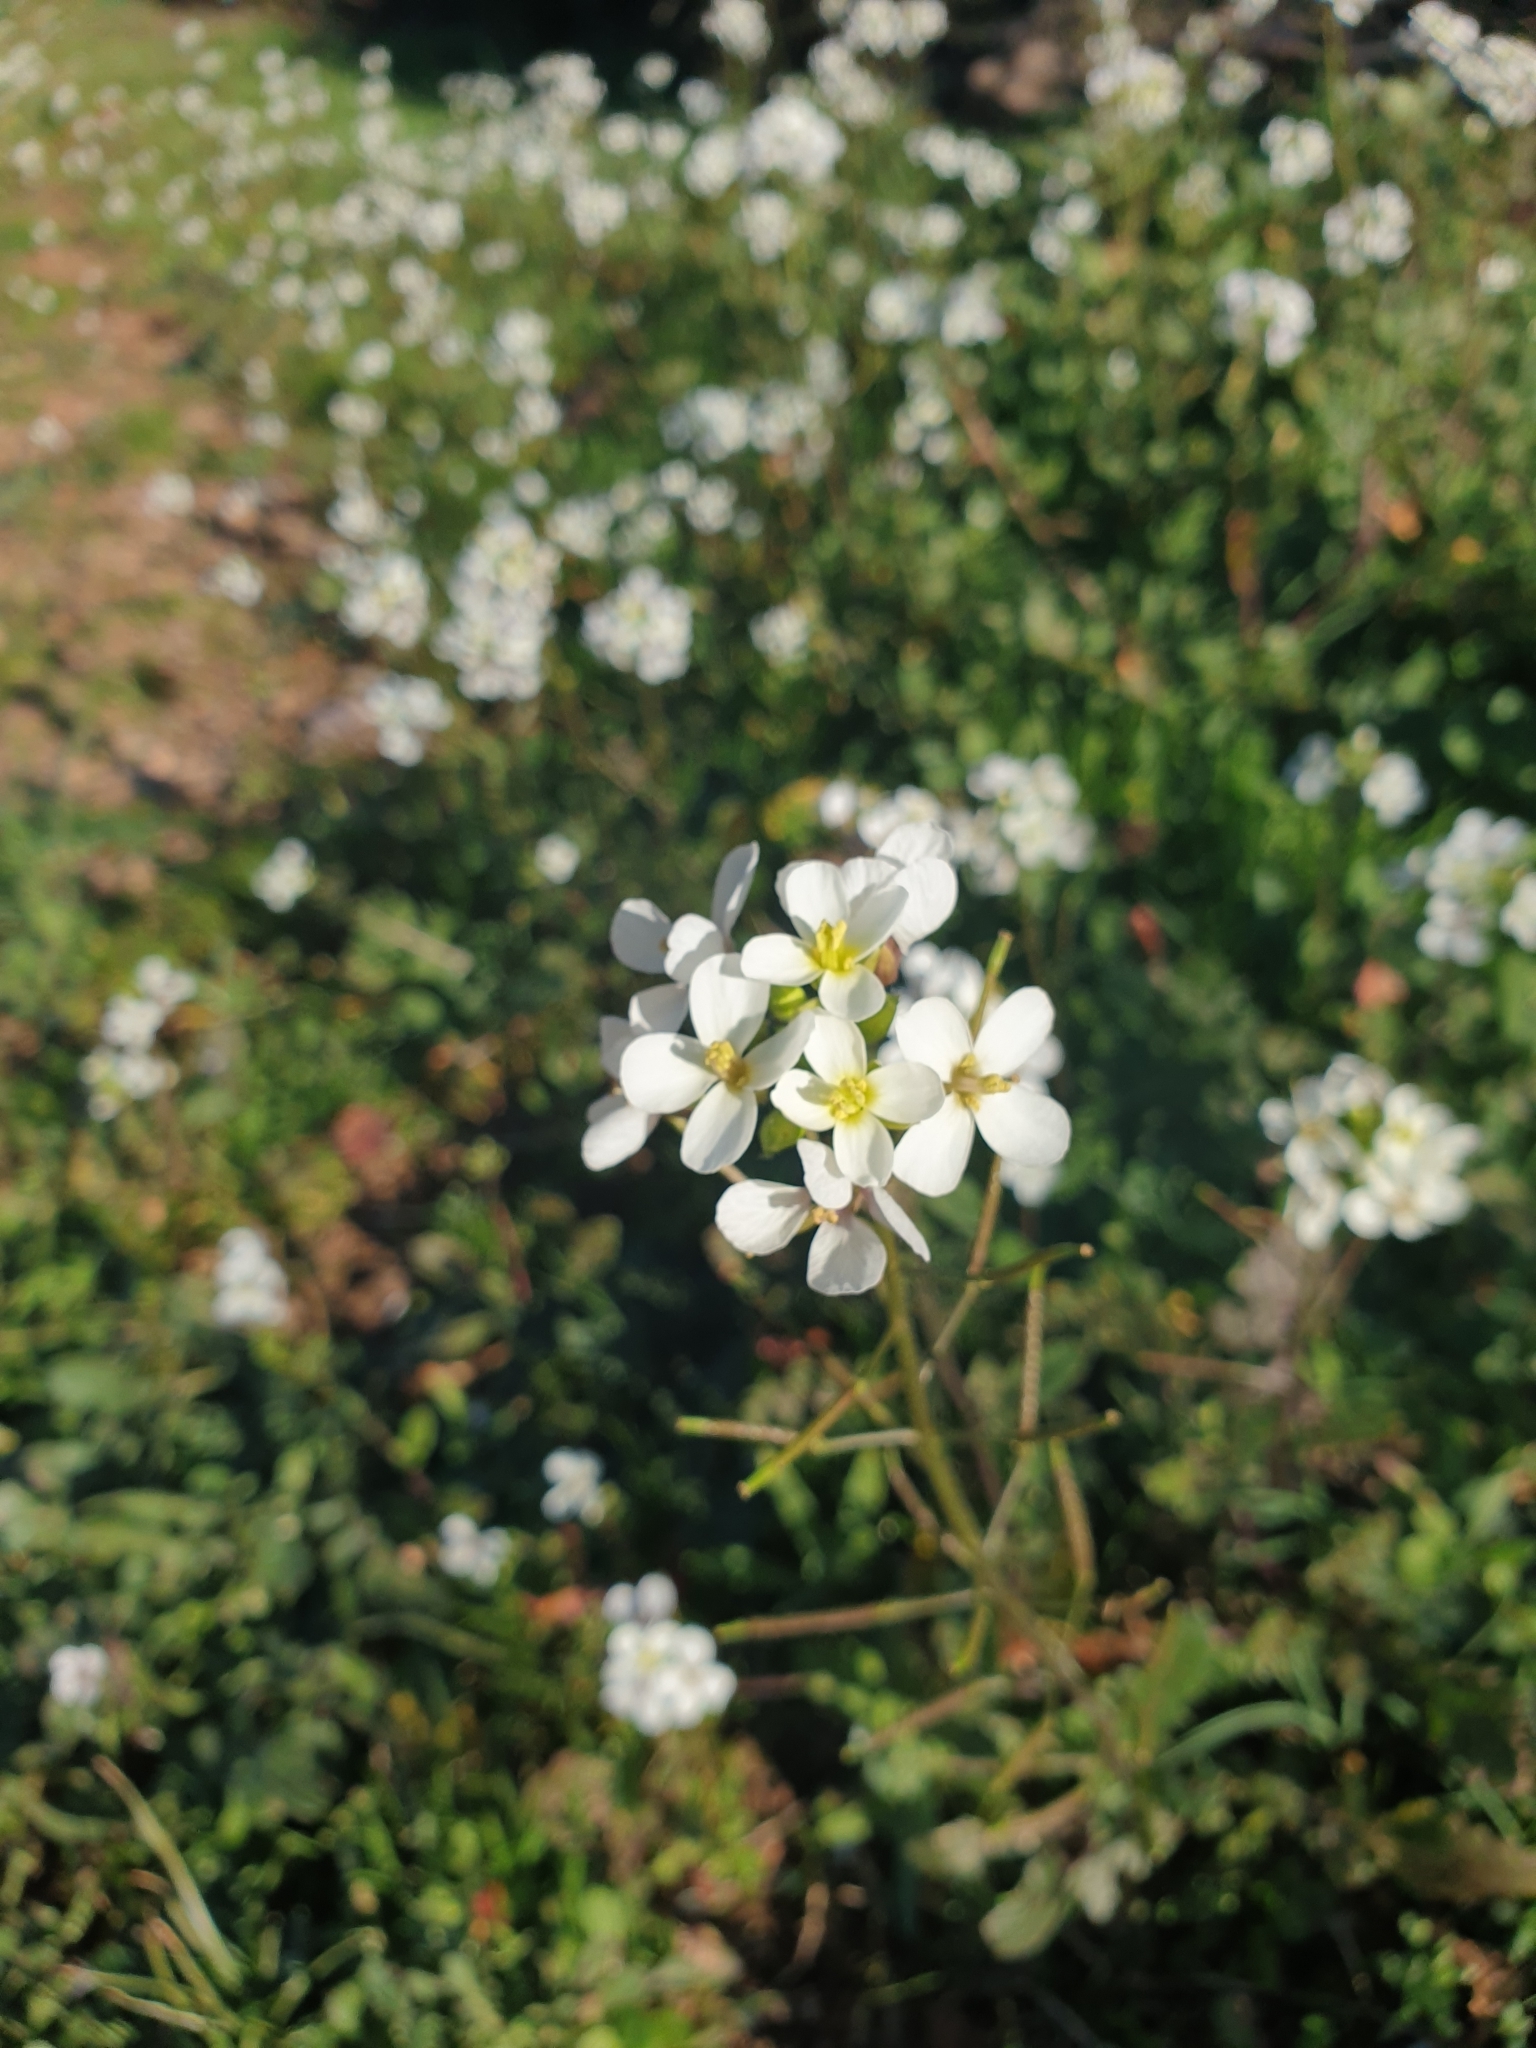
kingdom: Plantae
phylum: Tracheophyta
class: Magnoliopsida
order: Brassicales
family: Brassicaceae
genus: Diplotaxis
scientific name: Diplotaxis erucoides
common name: White rocket
